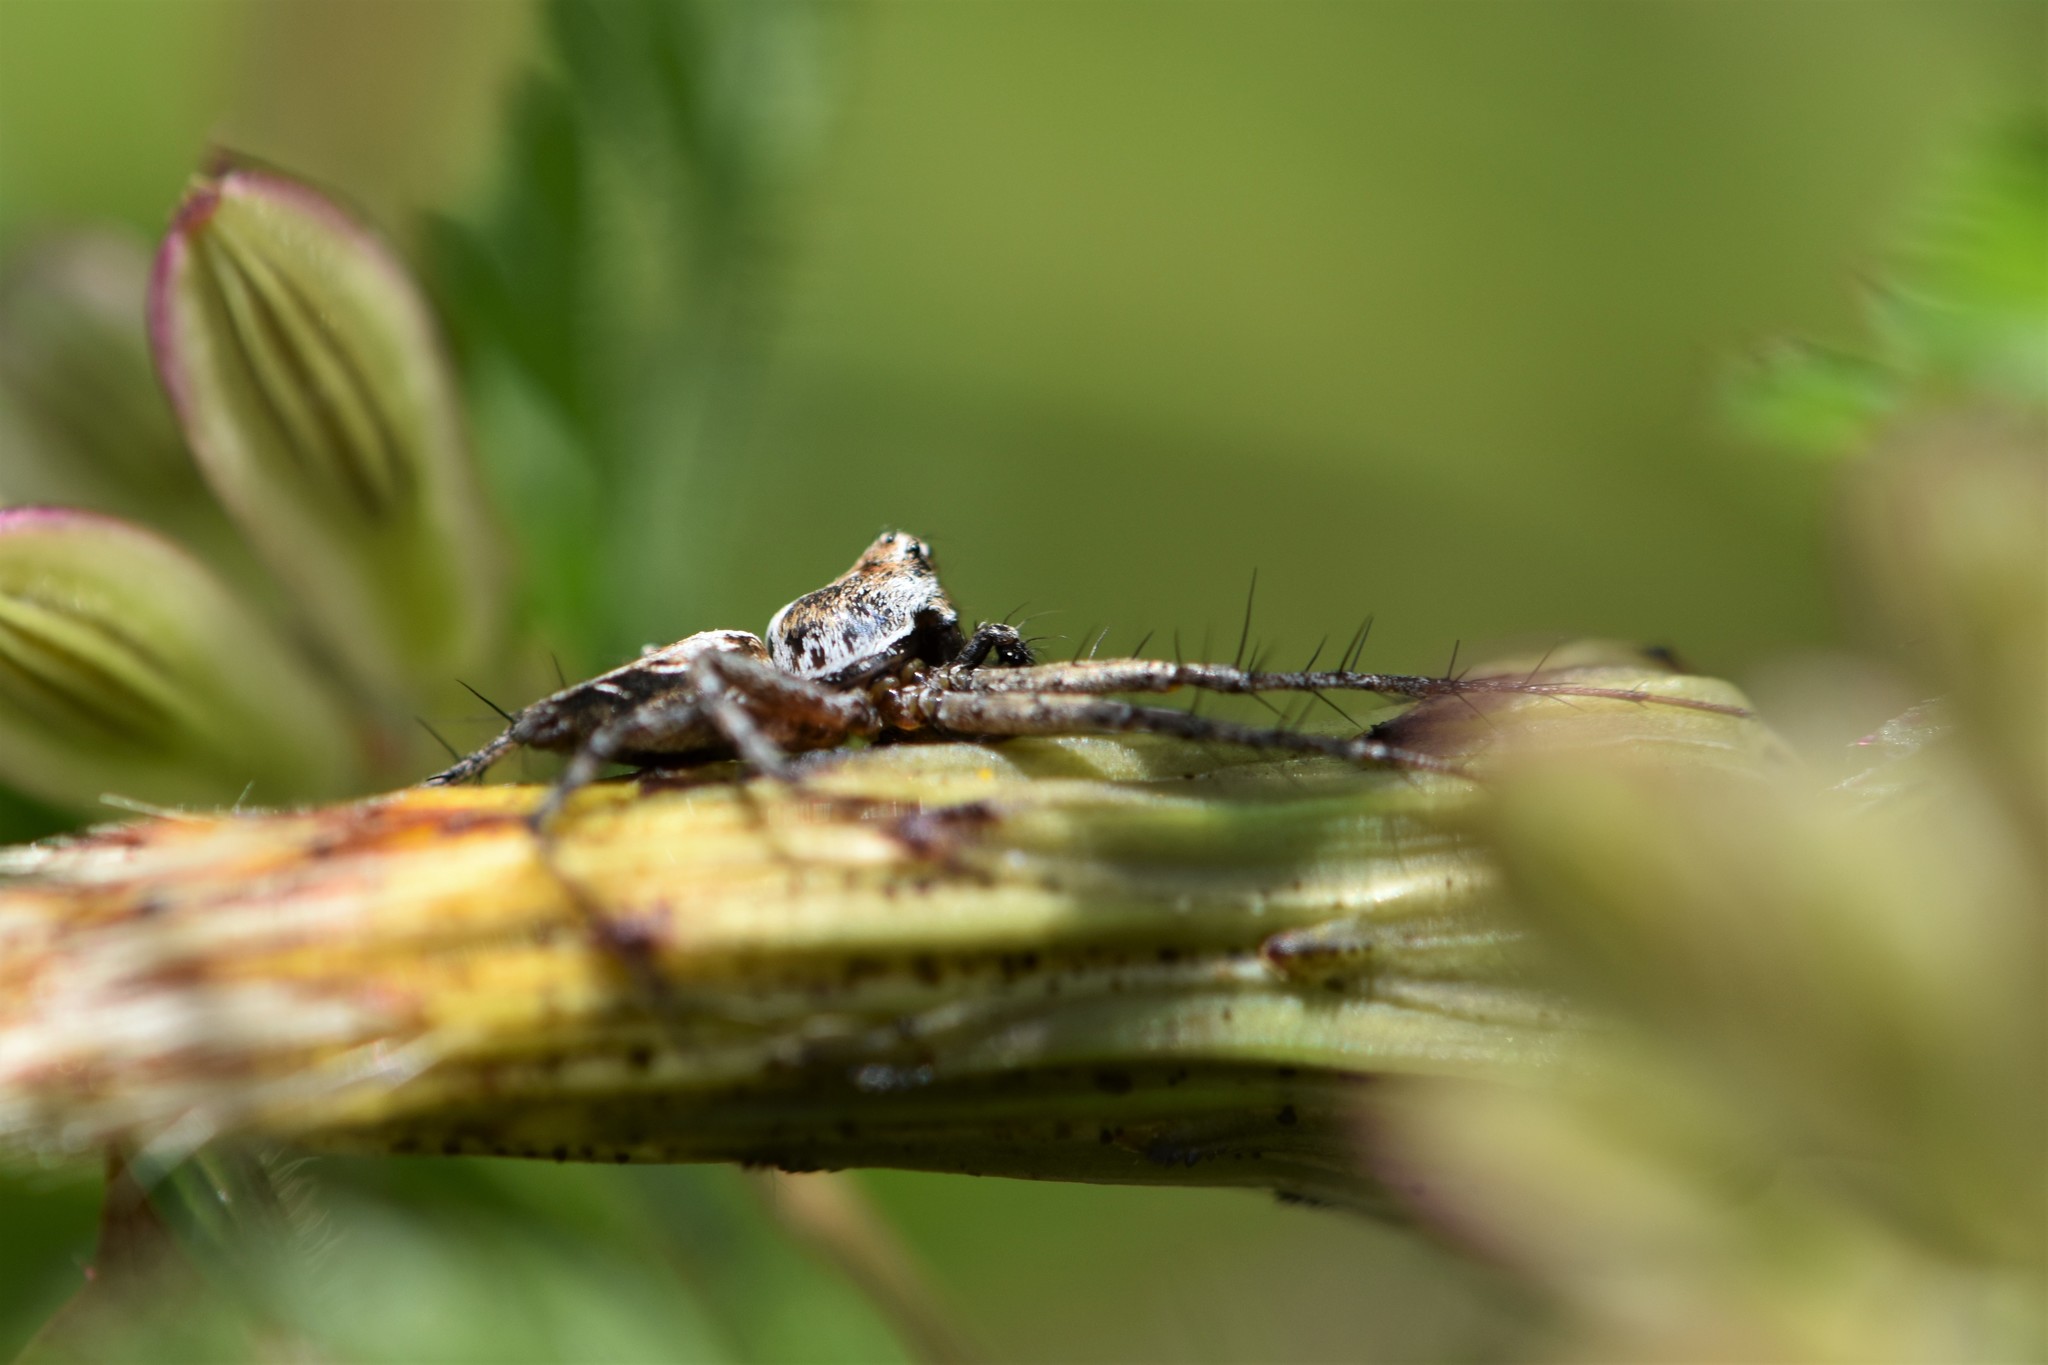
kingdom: Animalia
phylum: Arthropoda
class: Arachnida
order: Araneae
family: Oxyopidae
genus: Oxyopes
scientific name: Oxyopes scalaris
